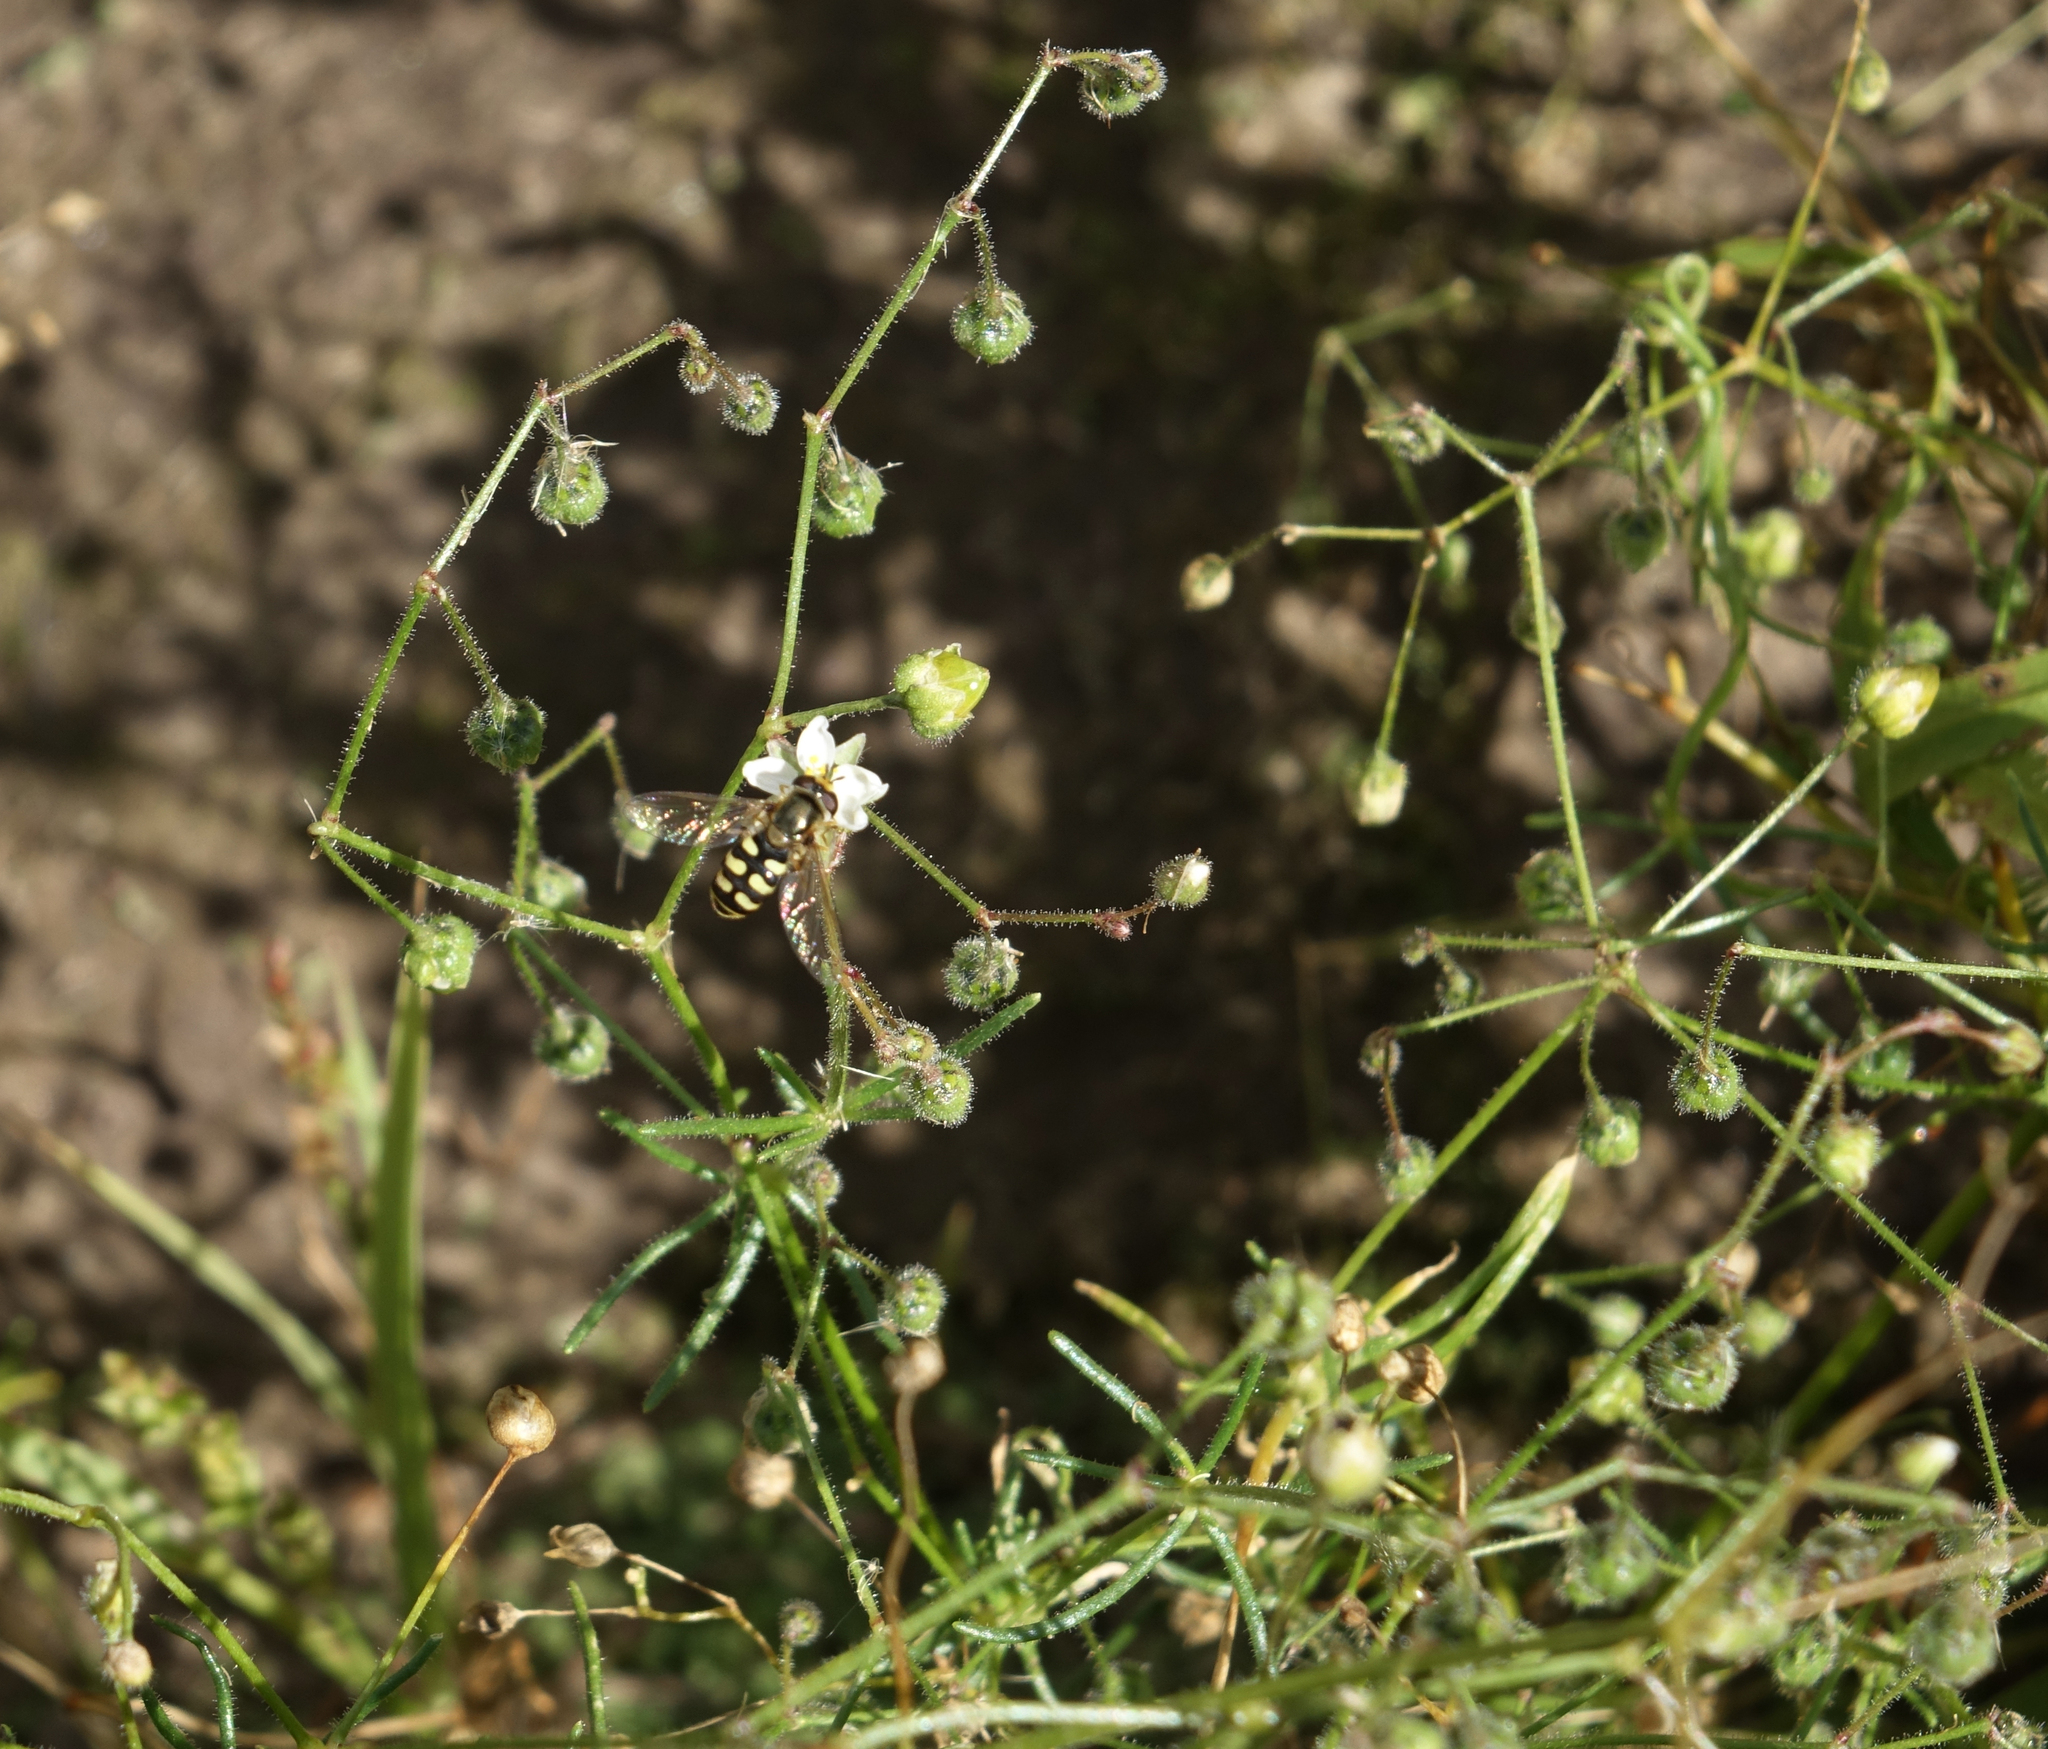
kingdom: Plantae
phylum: Tracheophyta
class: Magnoliopsida
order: Caryophyllales
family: Caryophyllaceae
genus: Spergula
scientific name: Spergula arvensis
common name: Corn spurrey
